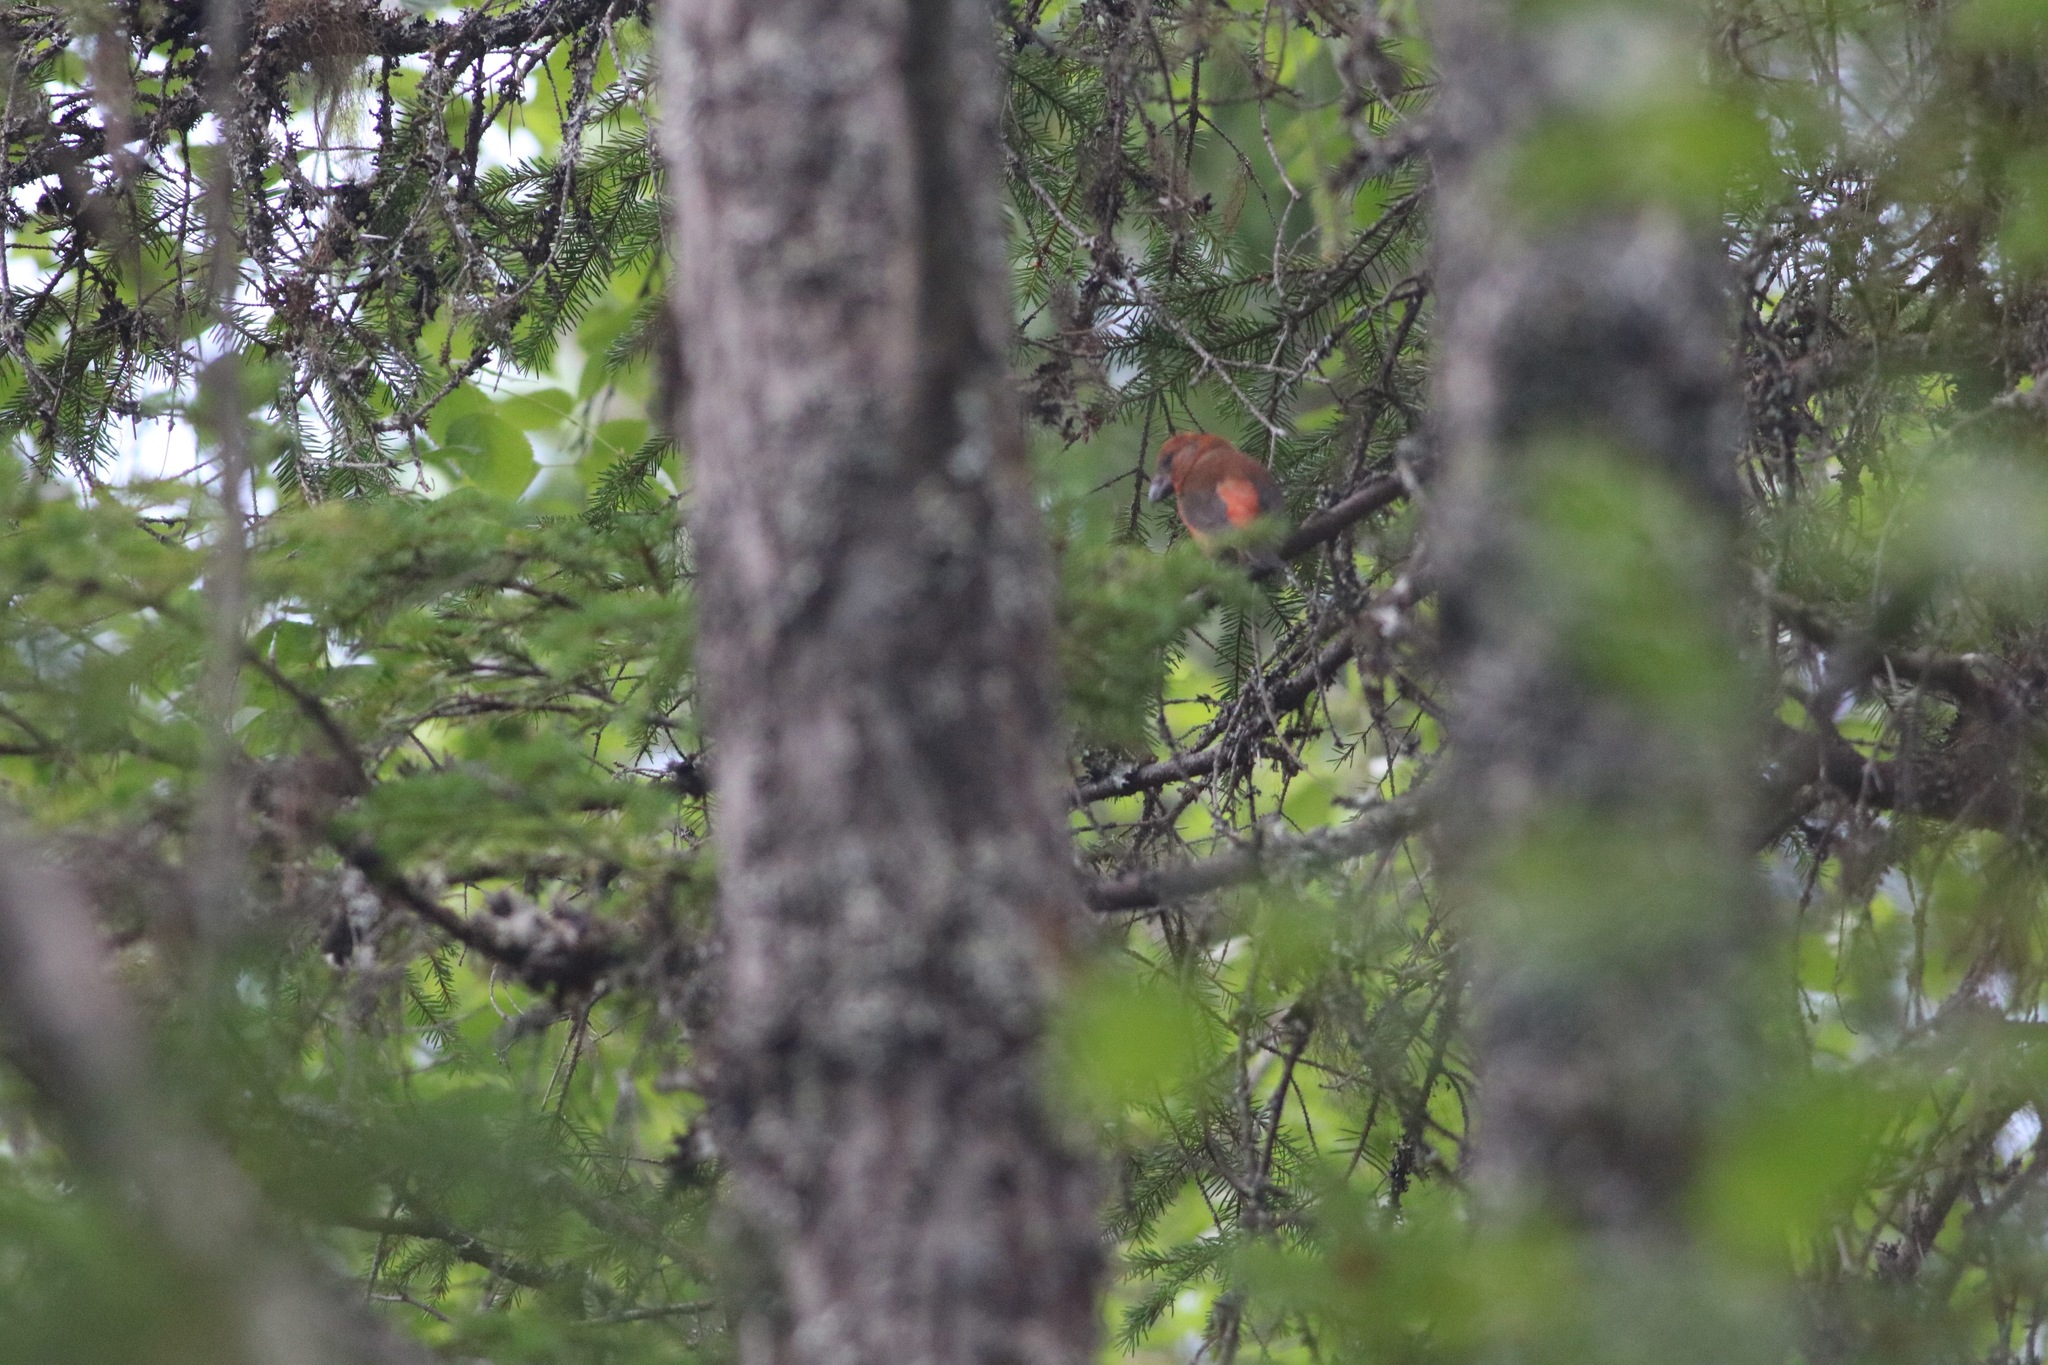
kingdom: Animalia
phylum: Chordata
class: Aves
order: Passeriformes
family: Fringillidae
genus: Loxia
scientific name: Loxia curvirostra
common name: Red crossbill
